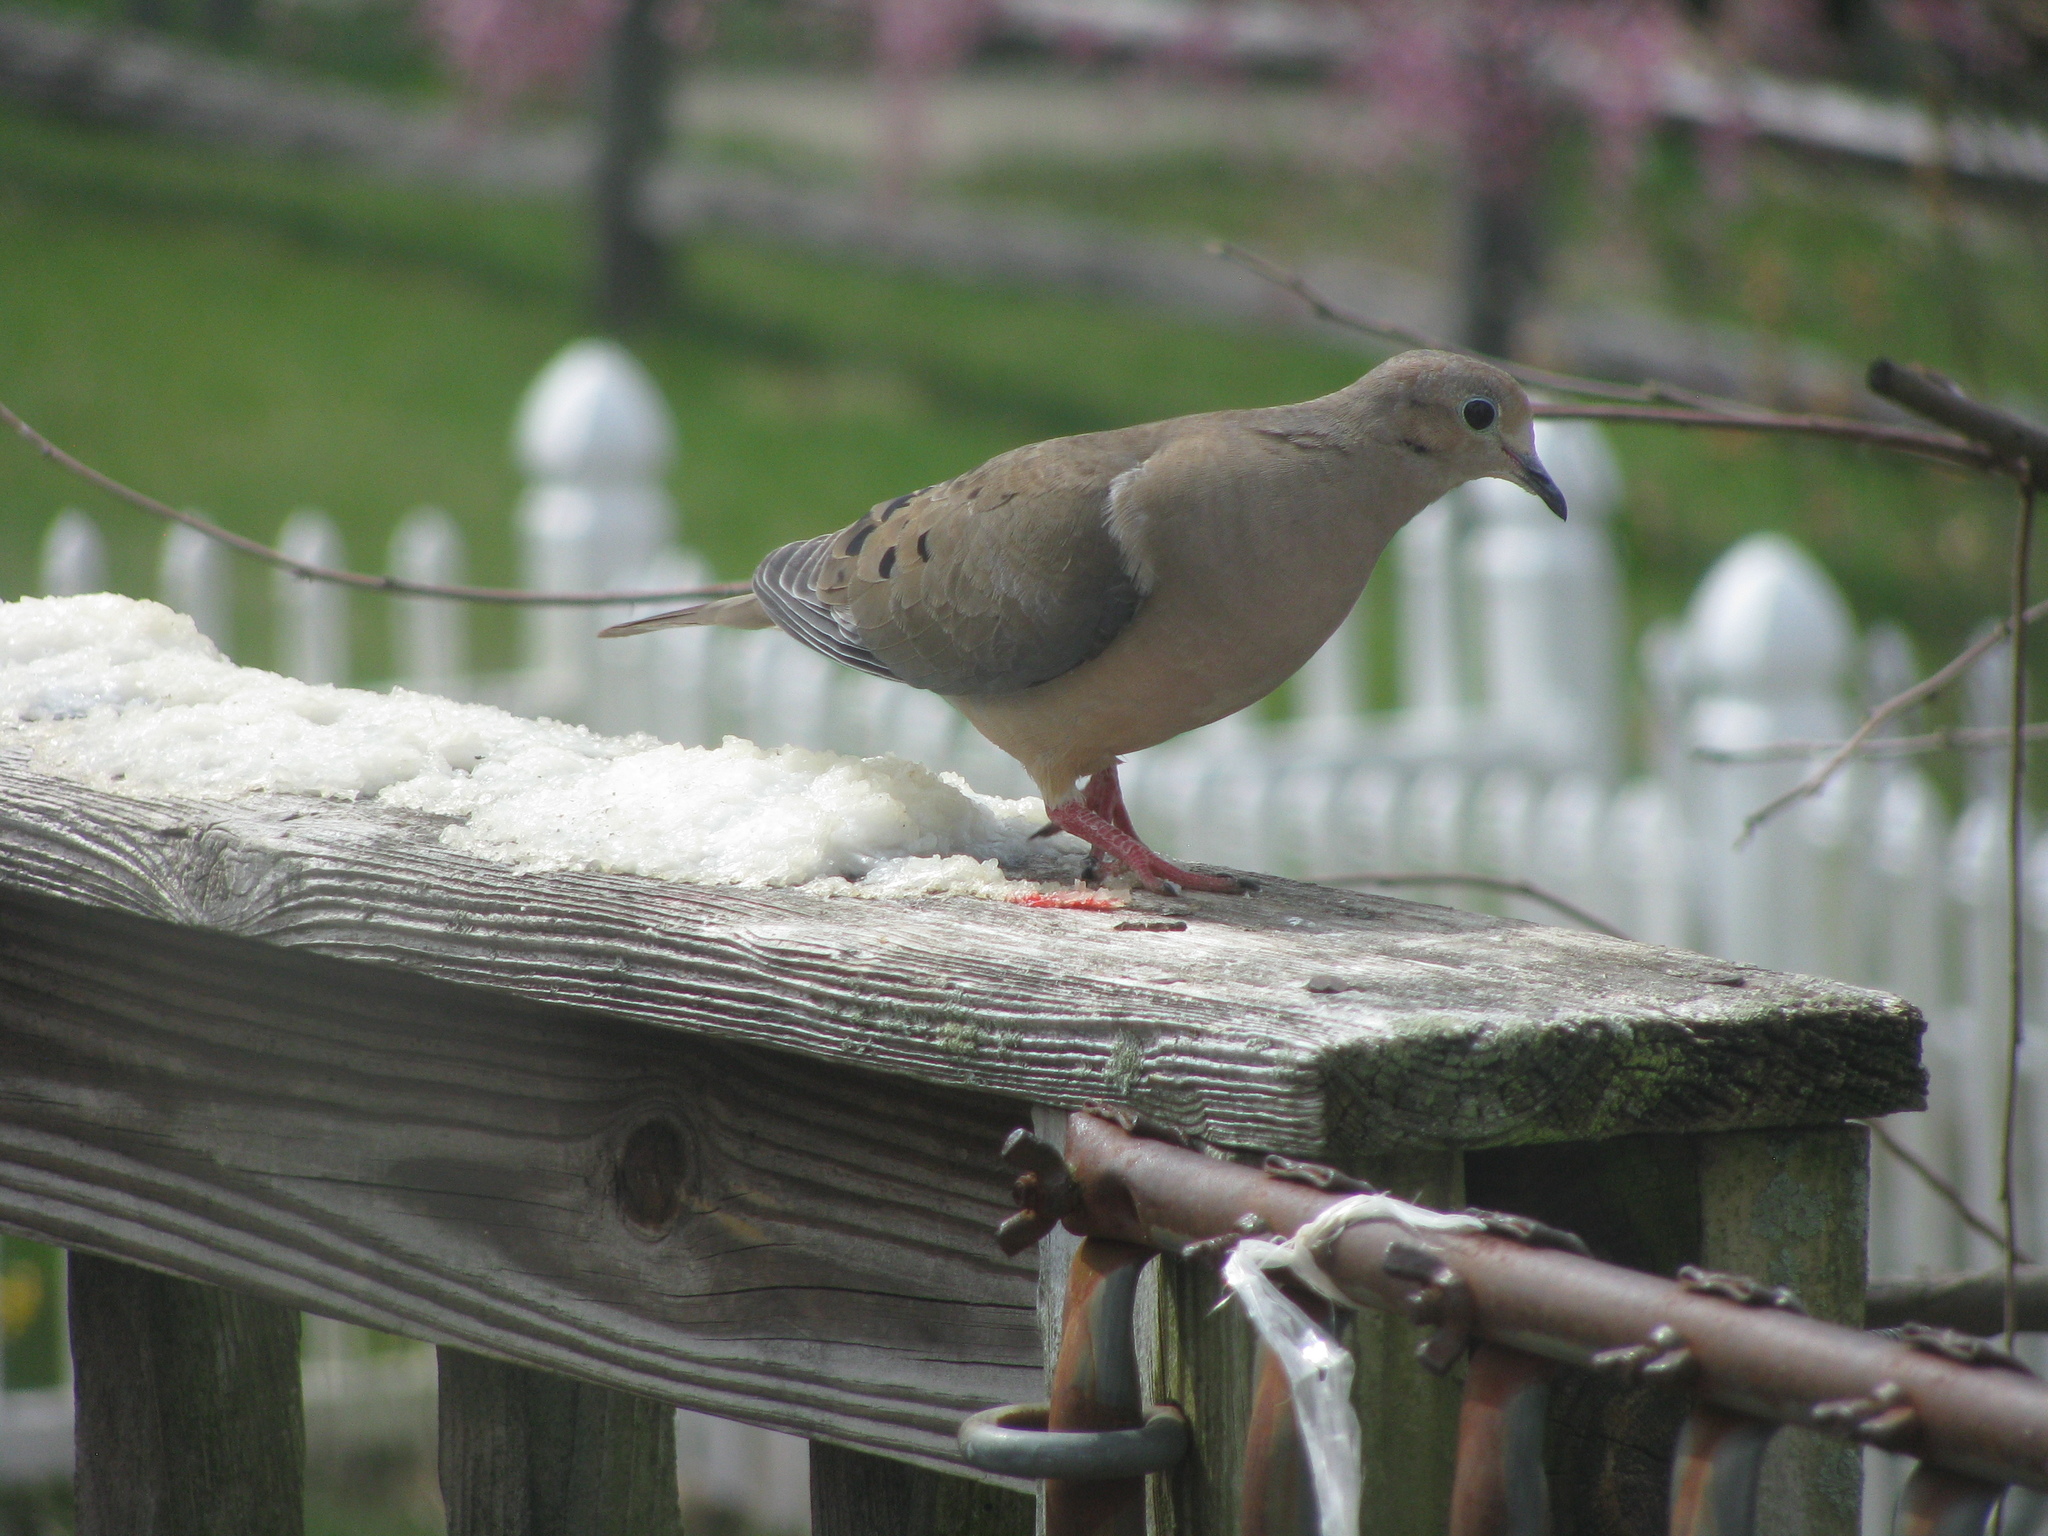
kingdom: Animalia
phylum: Chordata
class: Aves
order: Columbiformes
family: Columbidae
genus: Zenaida
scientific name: Zenaida macroura
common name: Mourning dove
